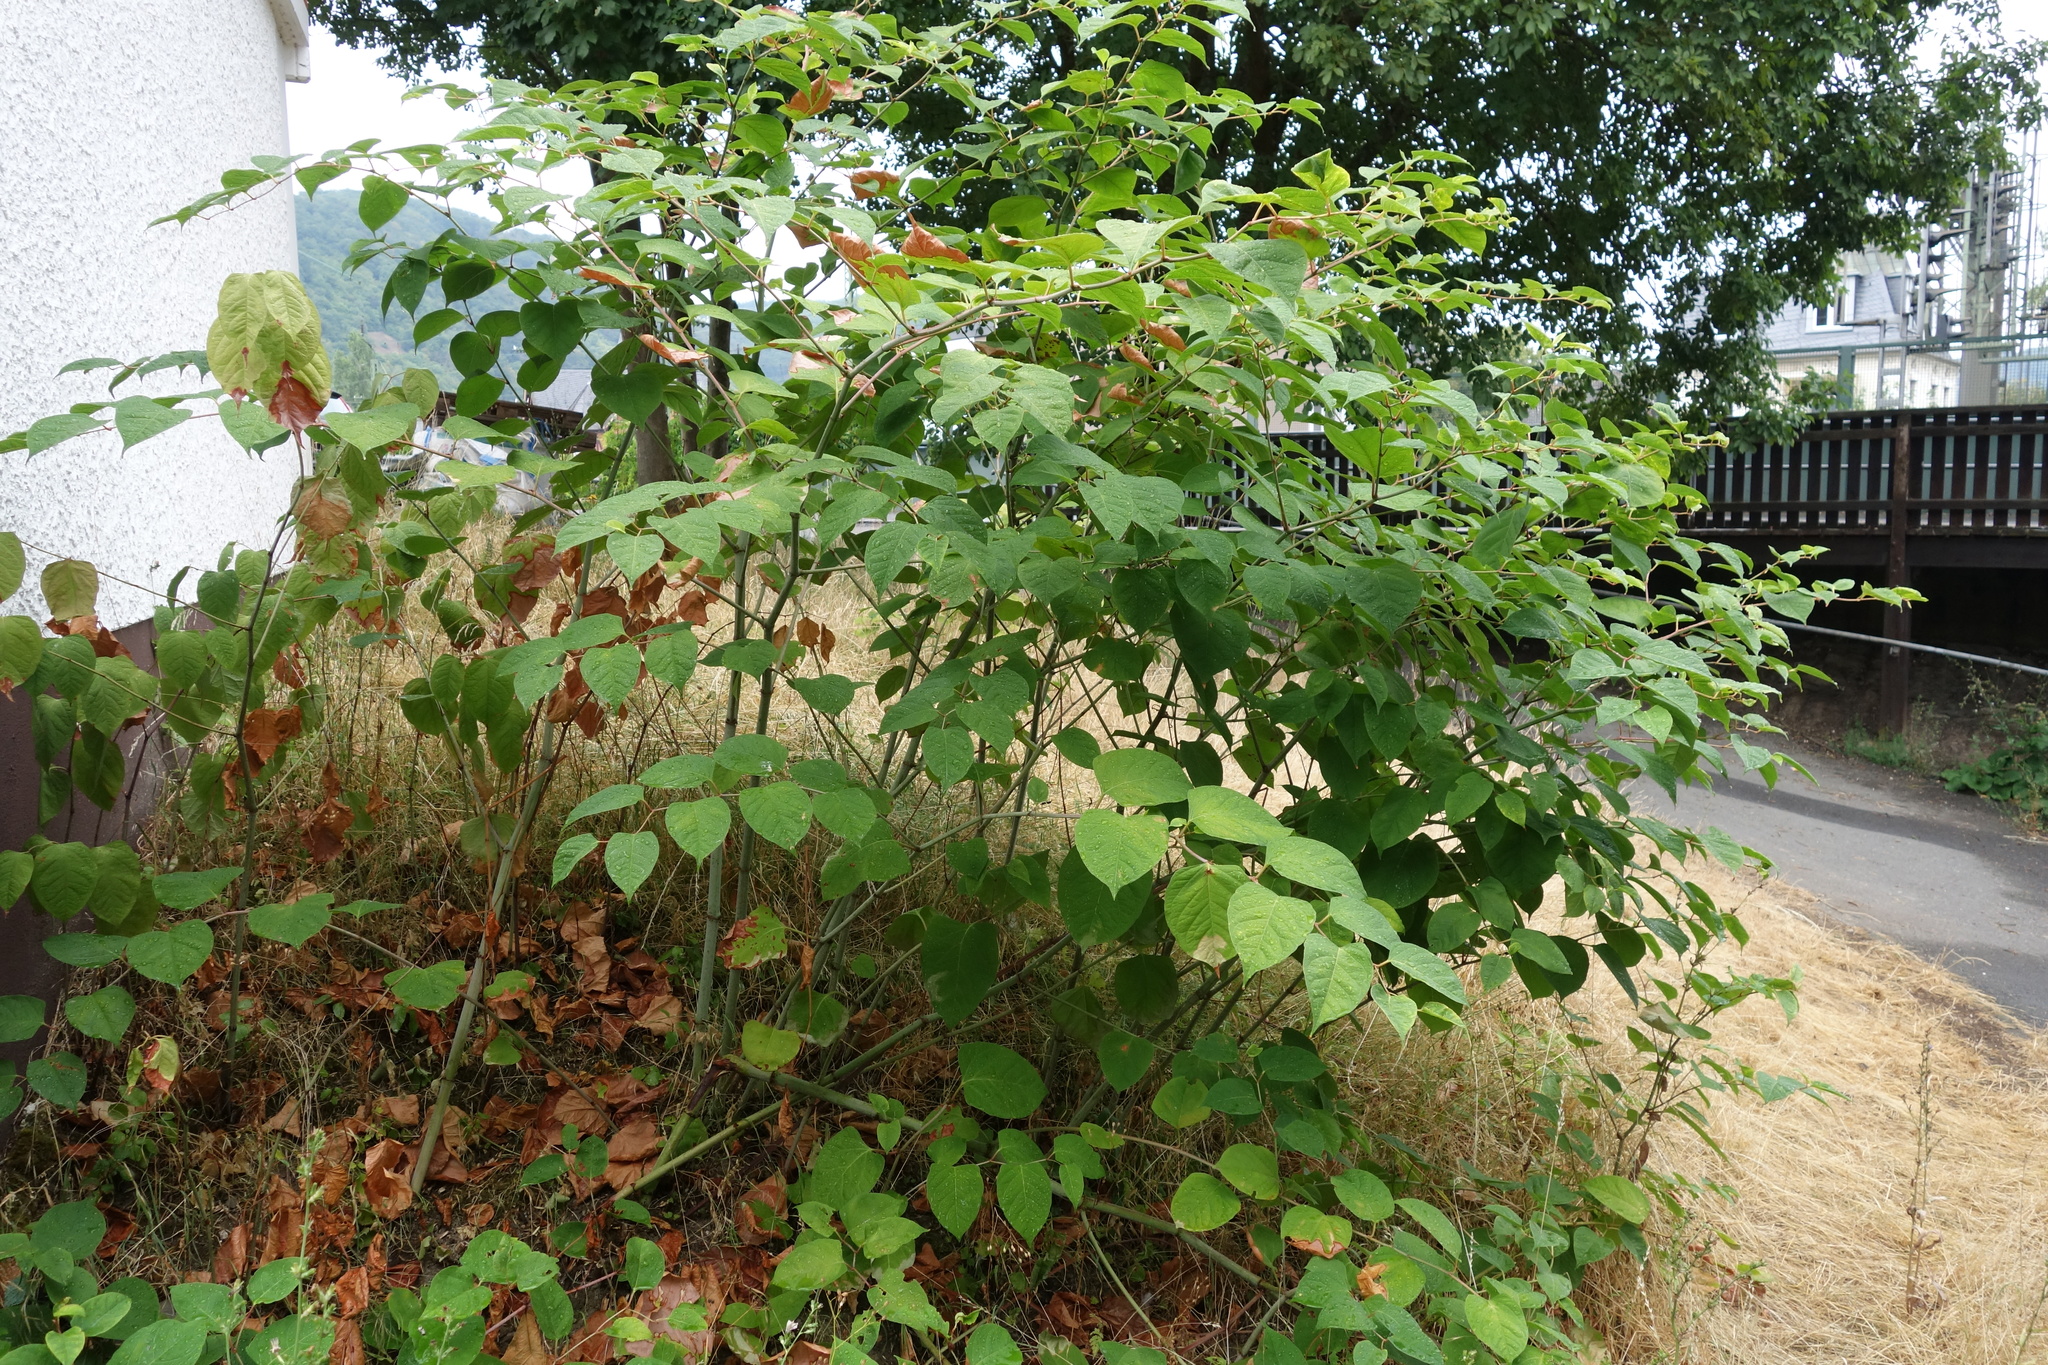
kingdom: Plantae
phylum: Tracheophyta
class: Magnoliopsida
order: Caryophyllales
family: Polygonaceae
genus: Reynoutria
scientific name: Reynoutria japonica
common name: Japanese knotweed
